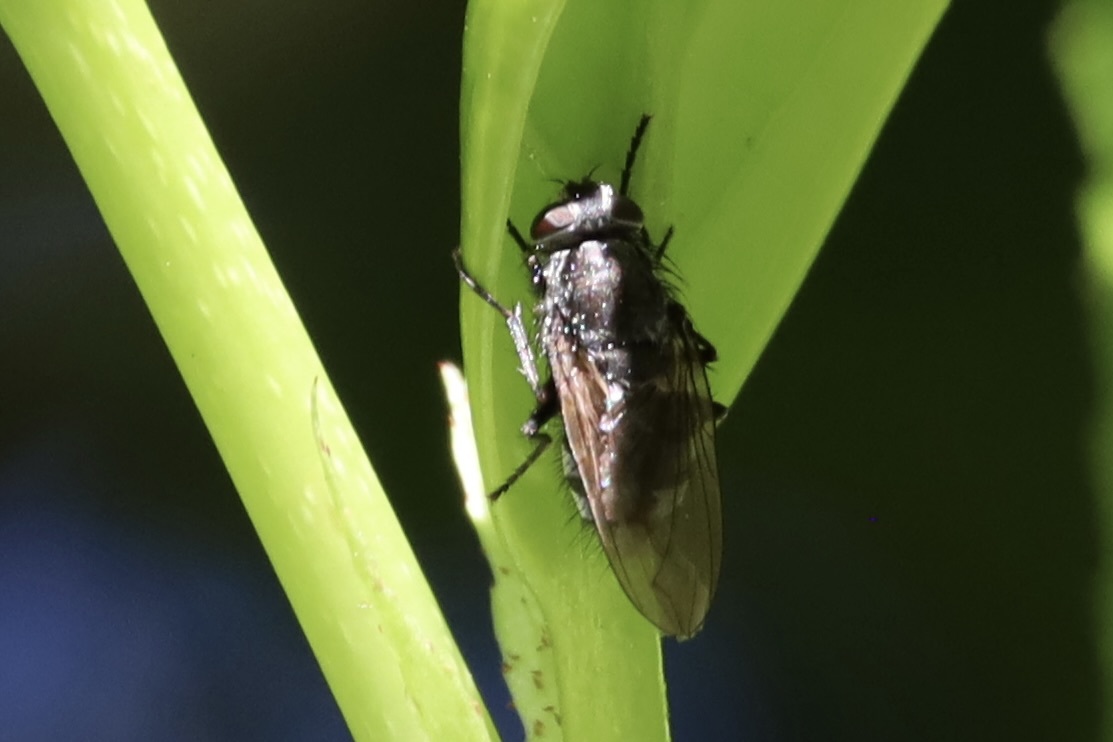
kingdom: Animalia
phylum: Arthropoda
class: Insecta
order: Diptera
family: Polleniidae
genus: Pollenia
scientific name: Pollenia vagabunda
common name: Vagabund cluster fly
